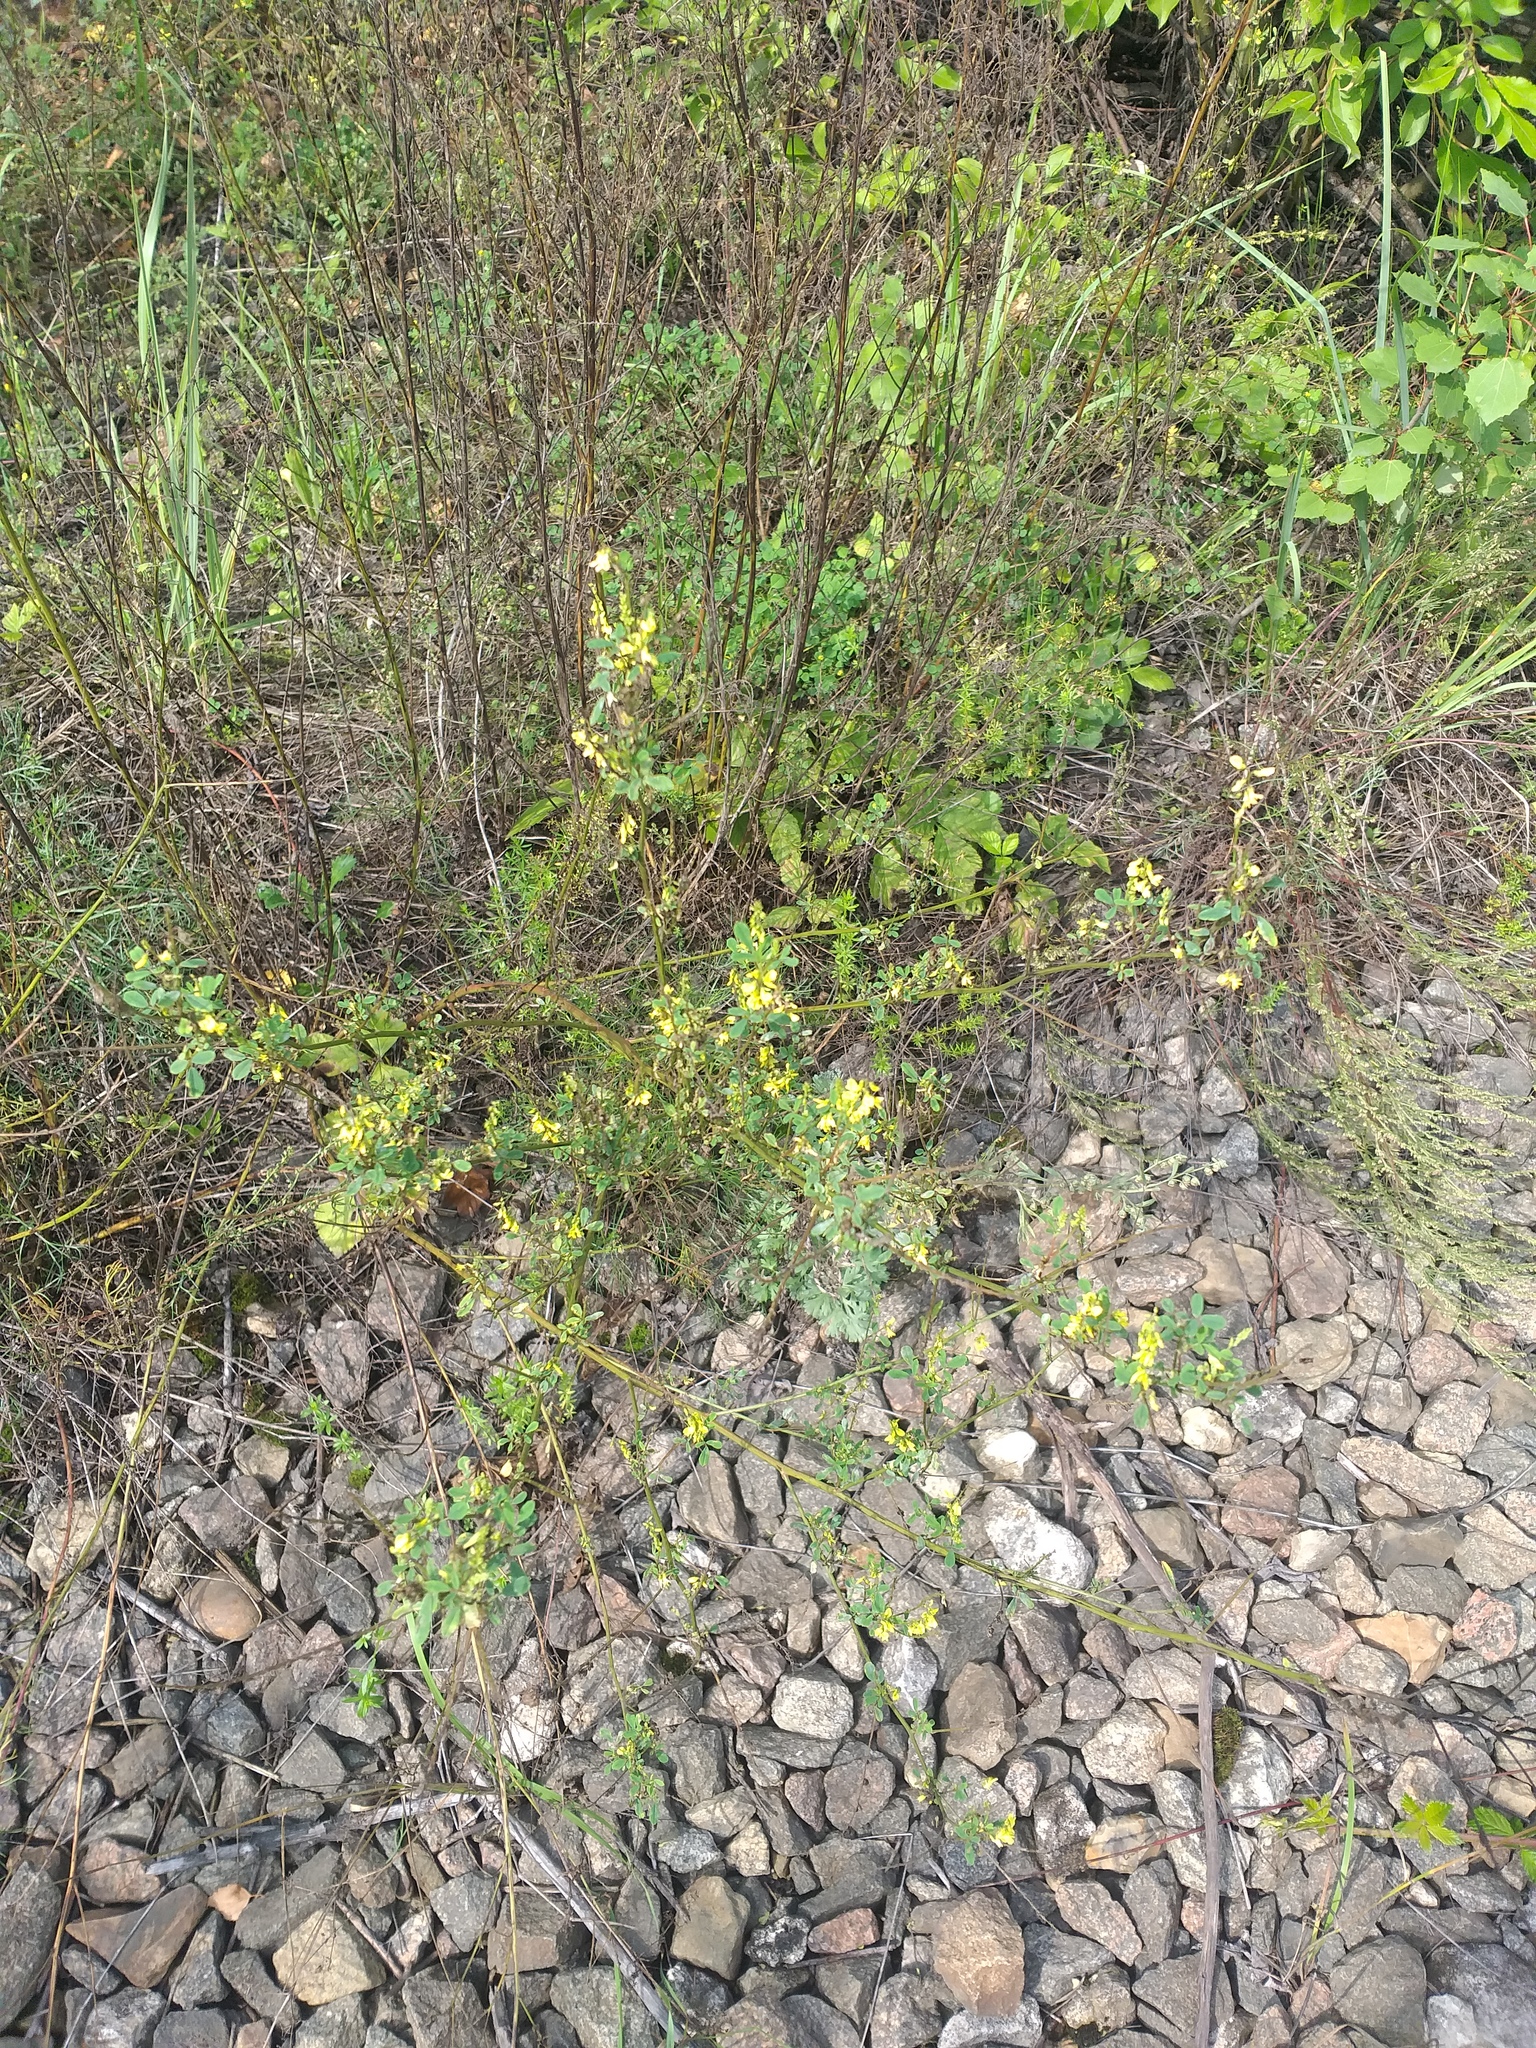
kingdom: Plantae
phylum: Tracheophyta
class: Magnoliopsida
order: Fabales
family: Fabaceae
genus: Melilotus
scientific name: Melilotus officinalis
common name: Sweetclover
